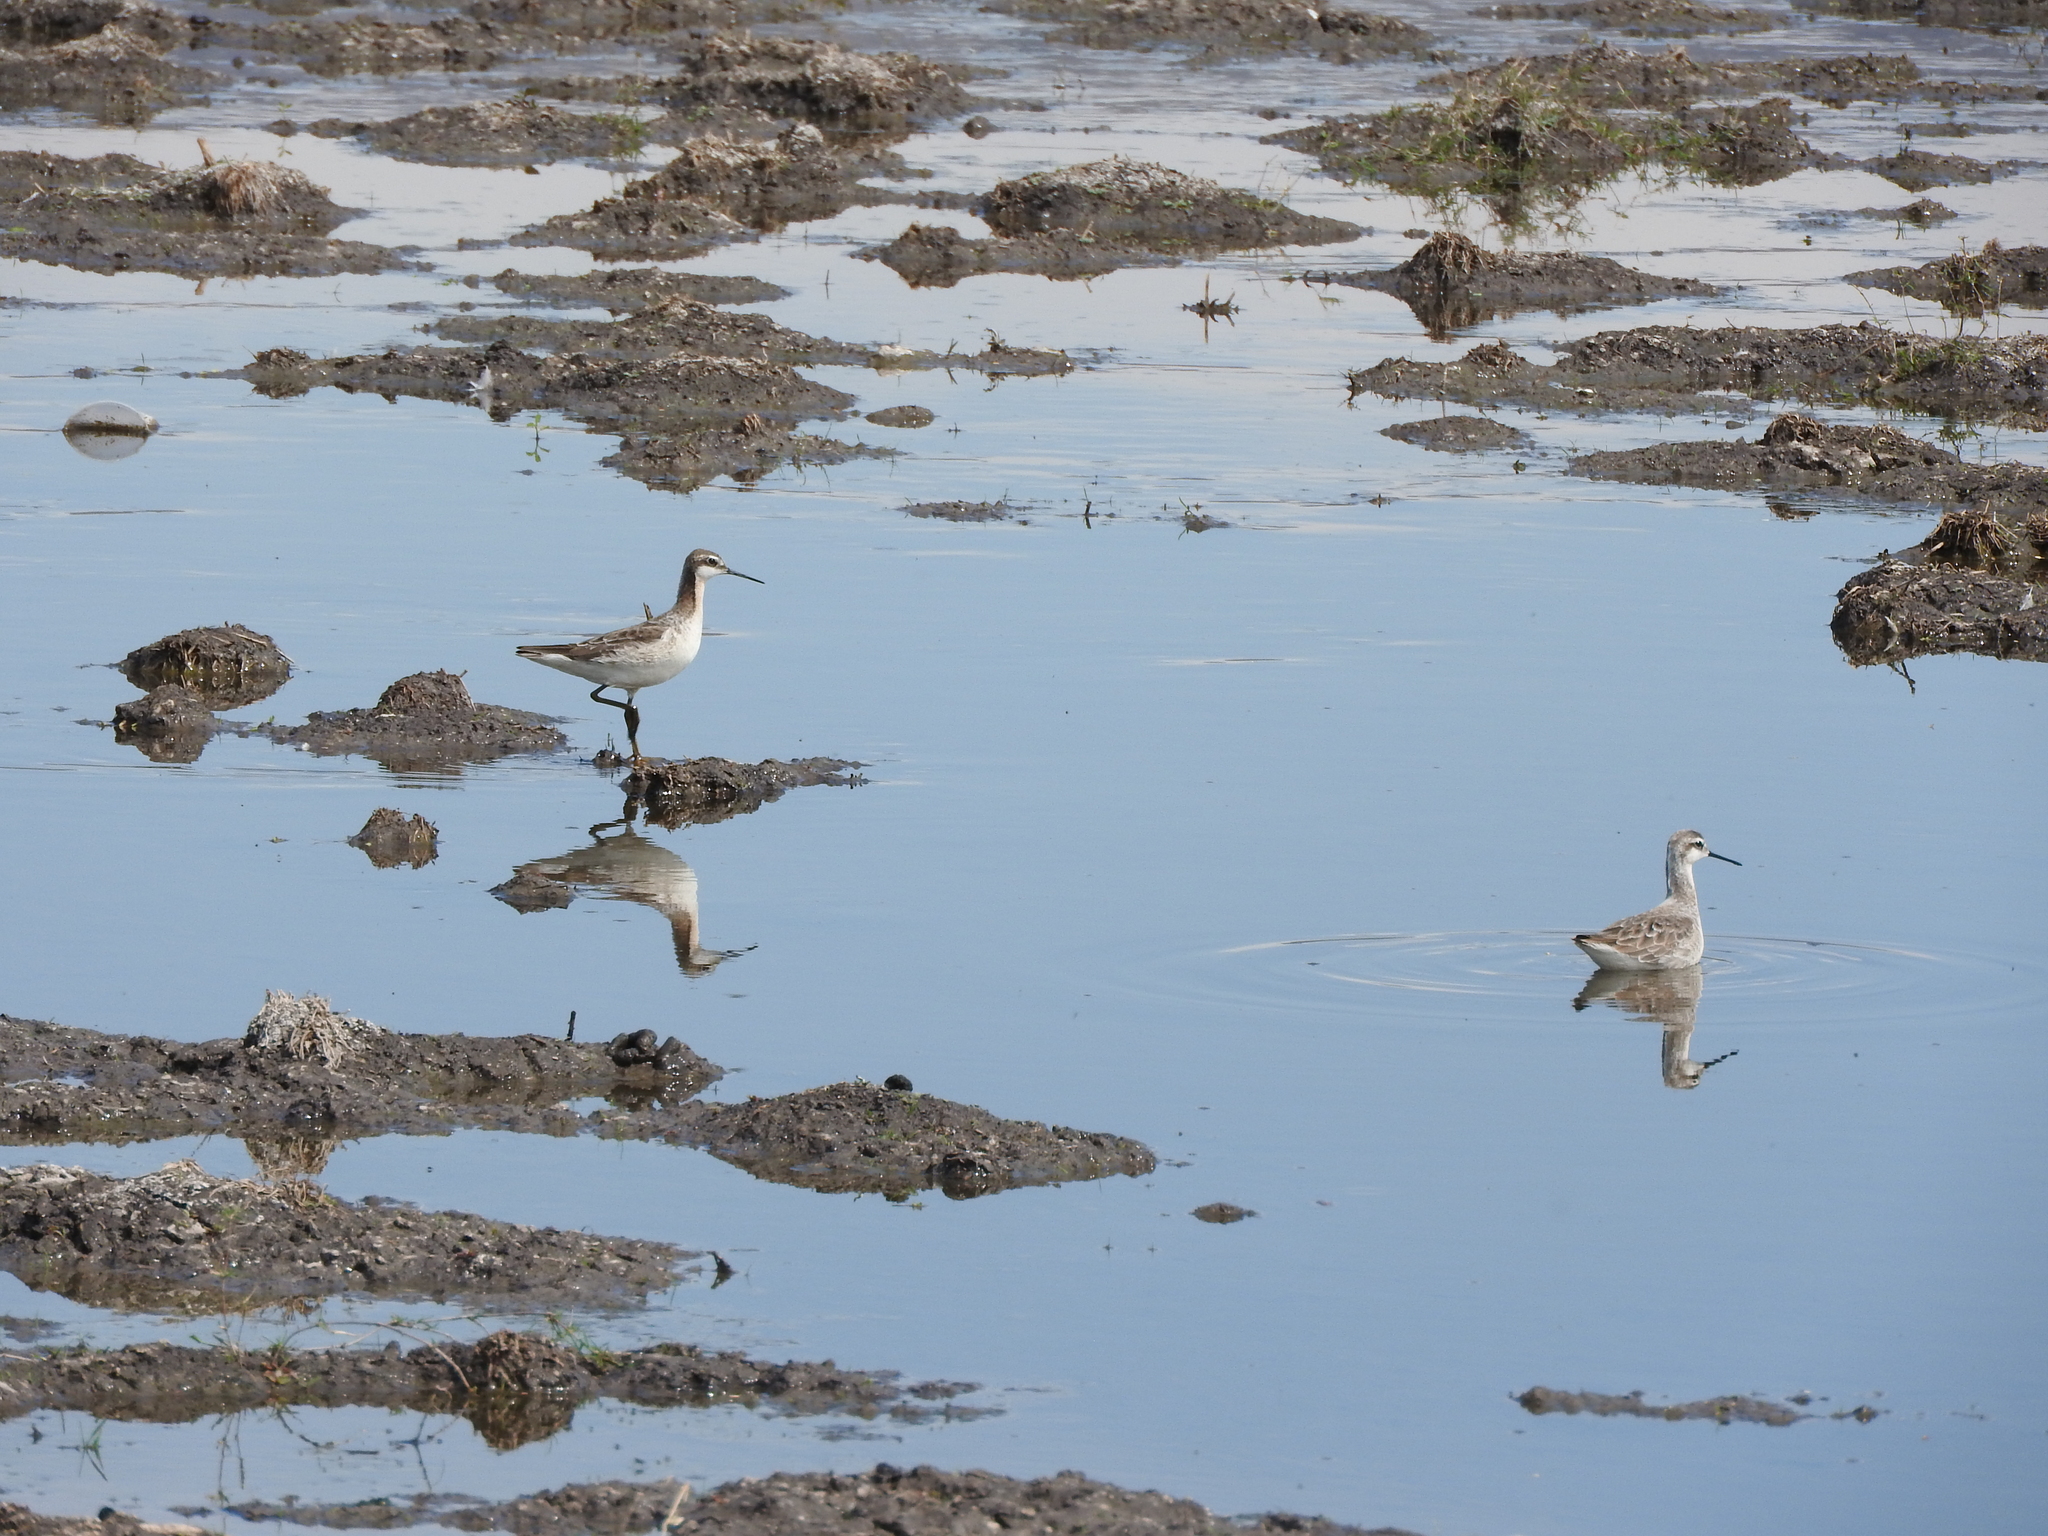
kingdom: Animalia
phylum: Chordata
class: Aves
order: Charadriiformes
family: Scolopacidae
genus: Phalaropus
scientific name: Phalaropus tricolor
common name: Wilson's phalarope
